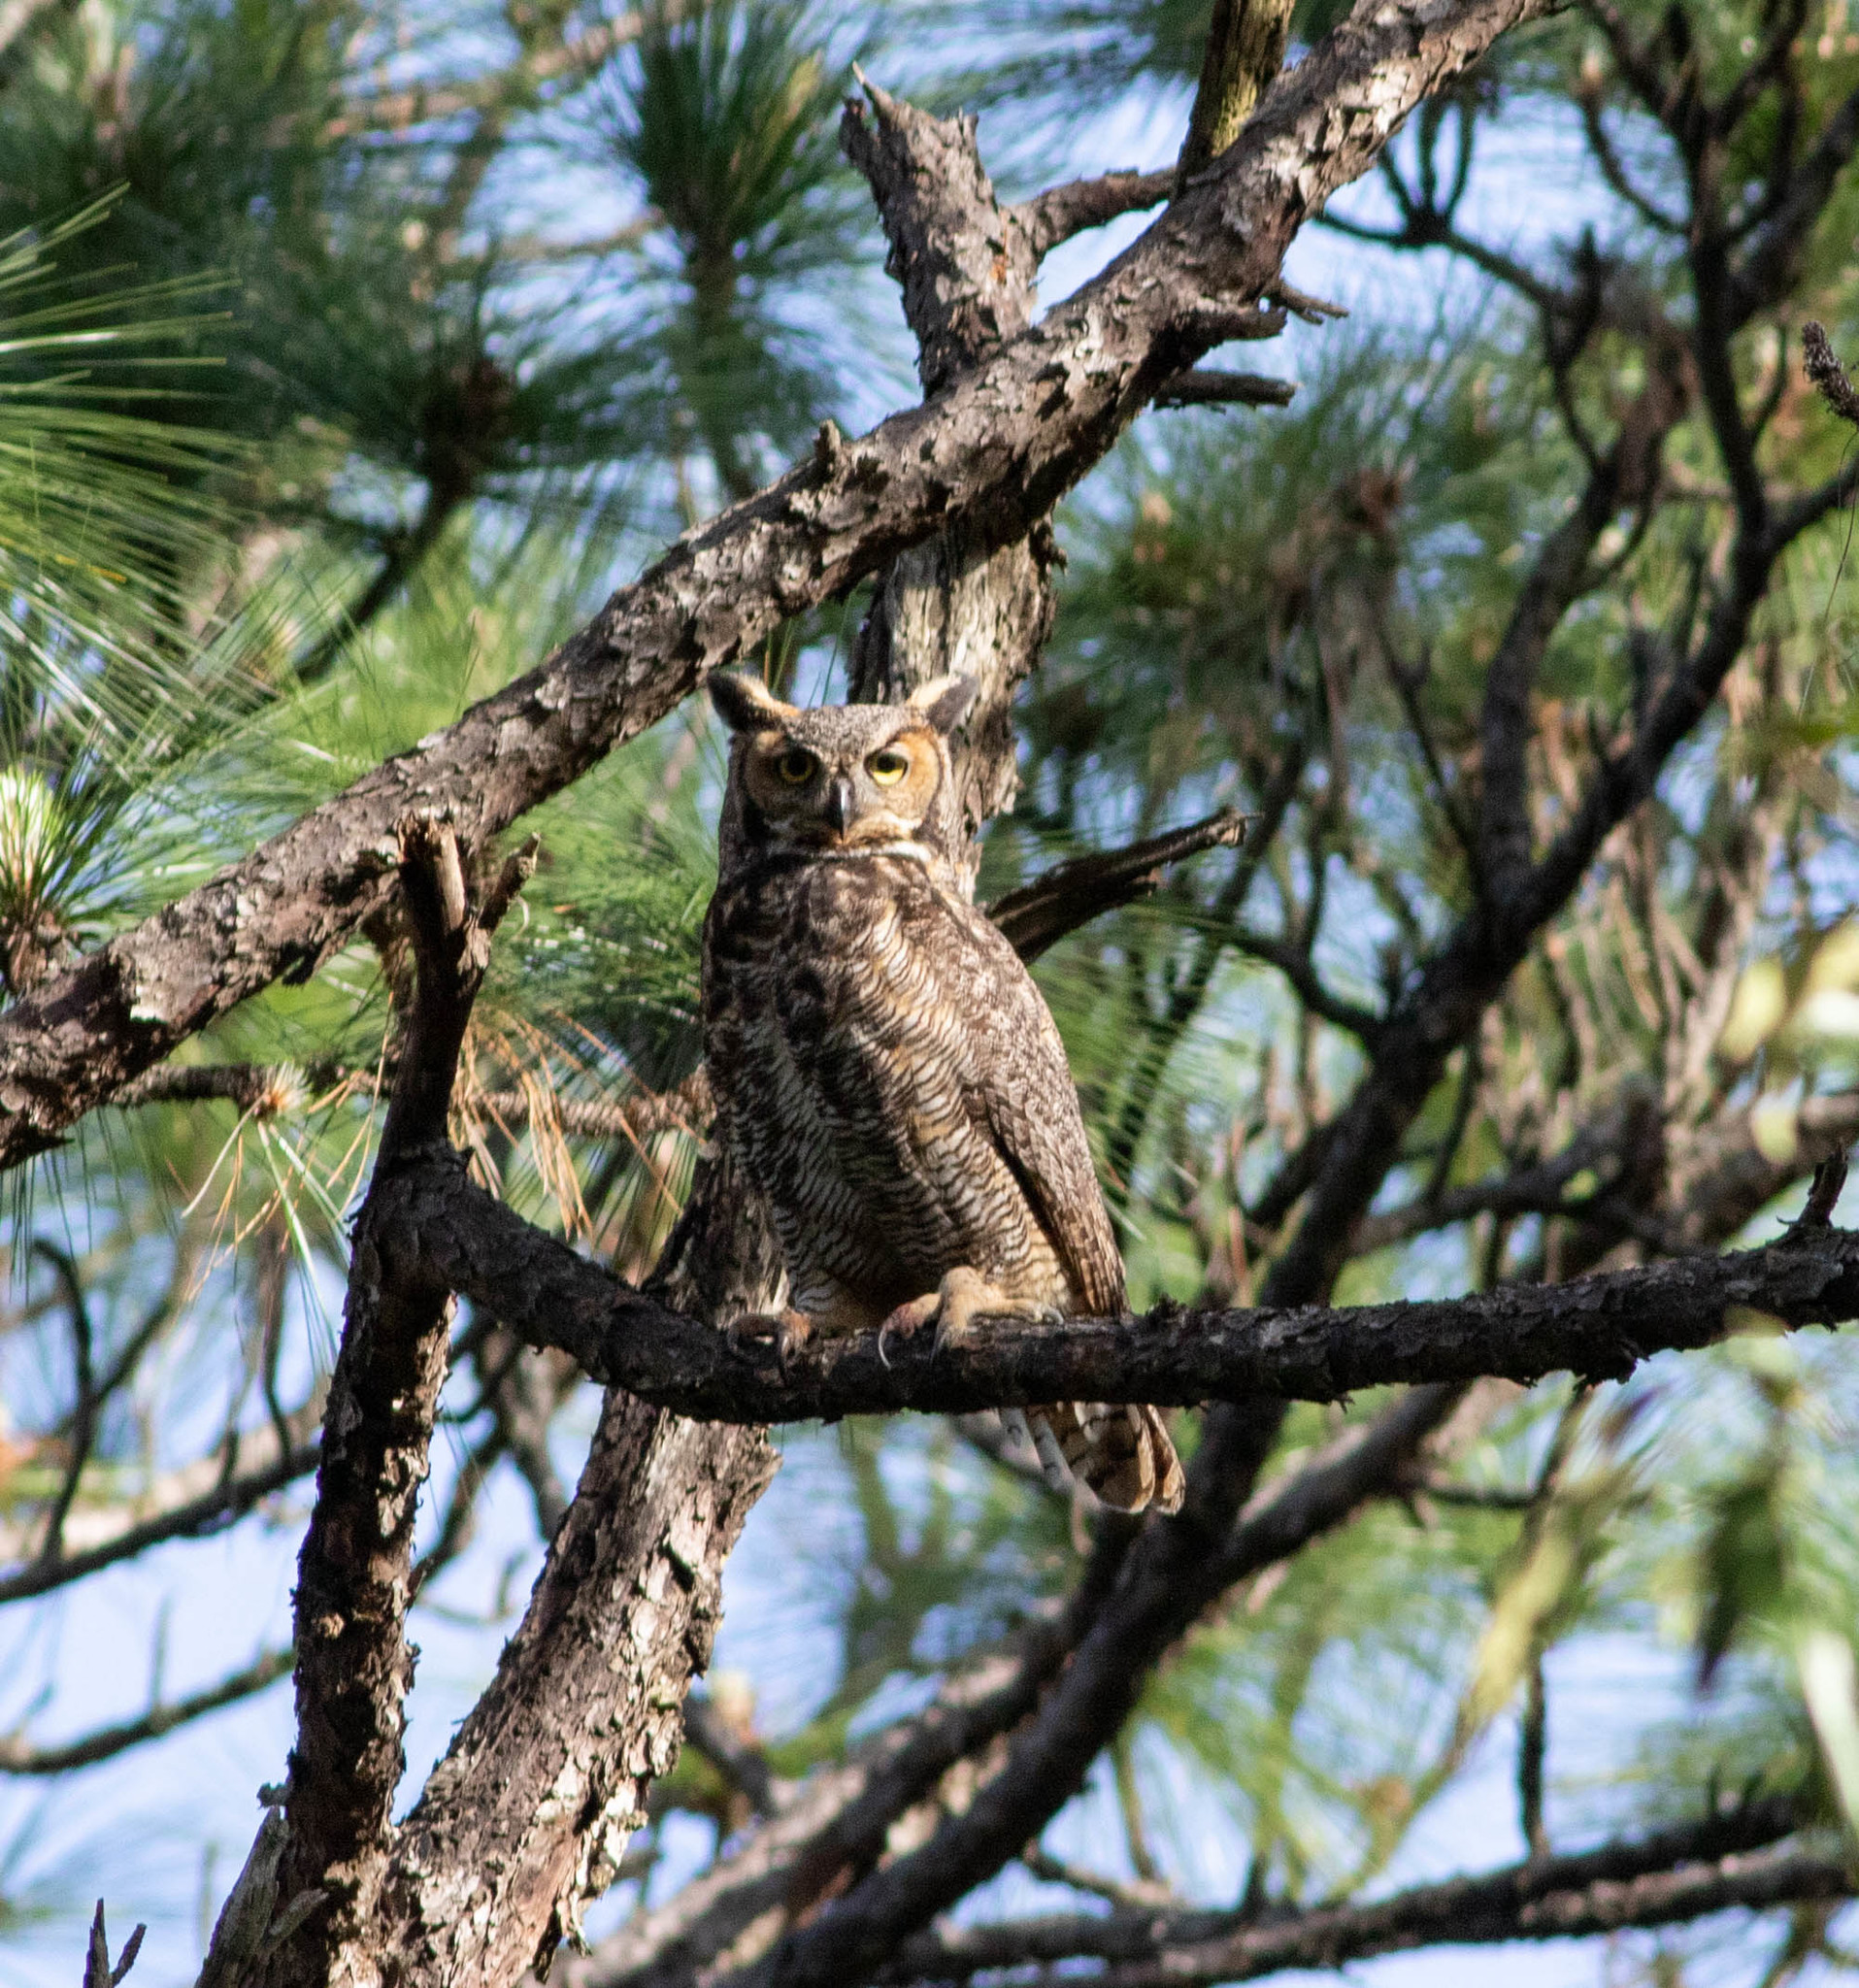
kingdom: Animalia
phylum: Chordata
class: Aves
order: Strigiformes
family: Strigidae
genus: Bubo
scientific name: Bubo virginianus
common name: Great horned owl
